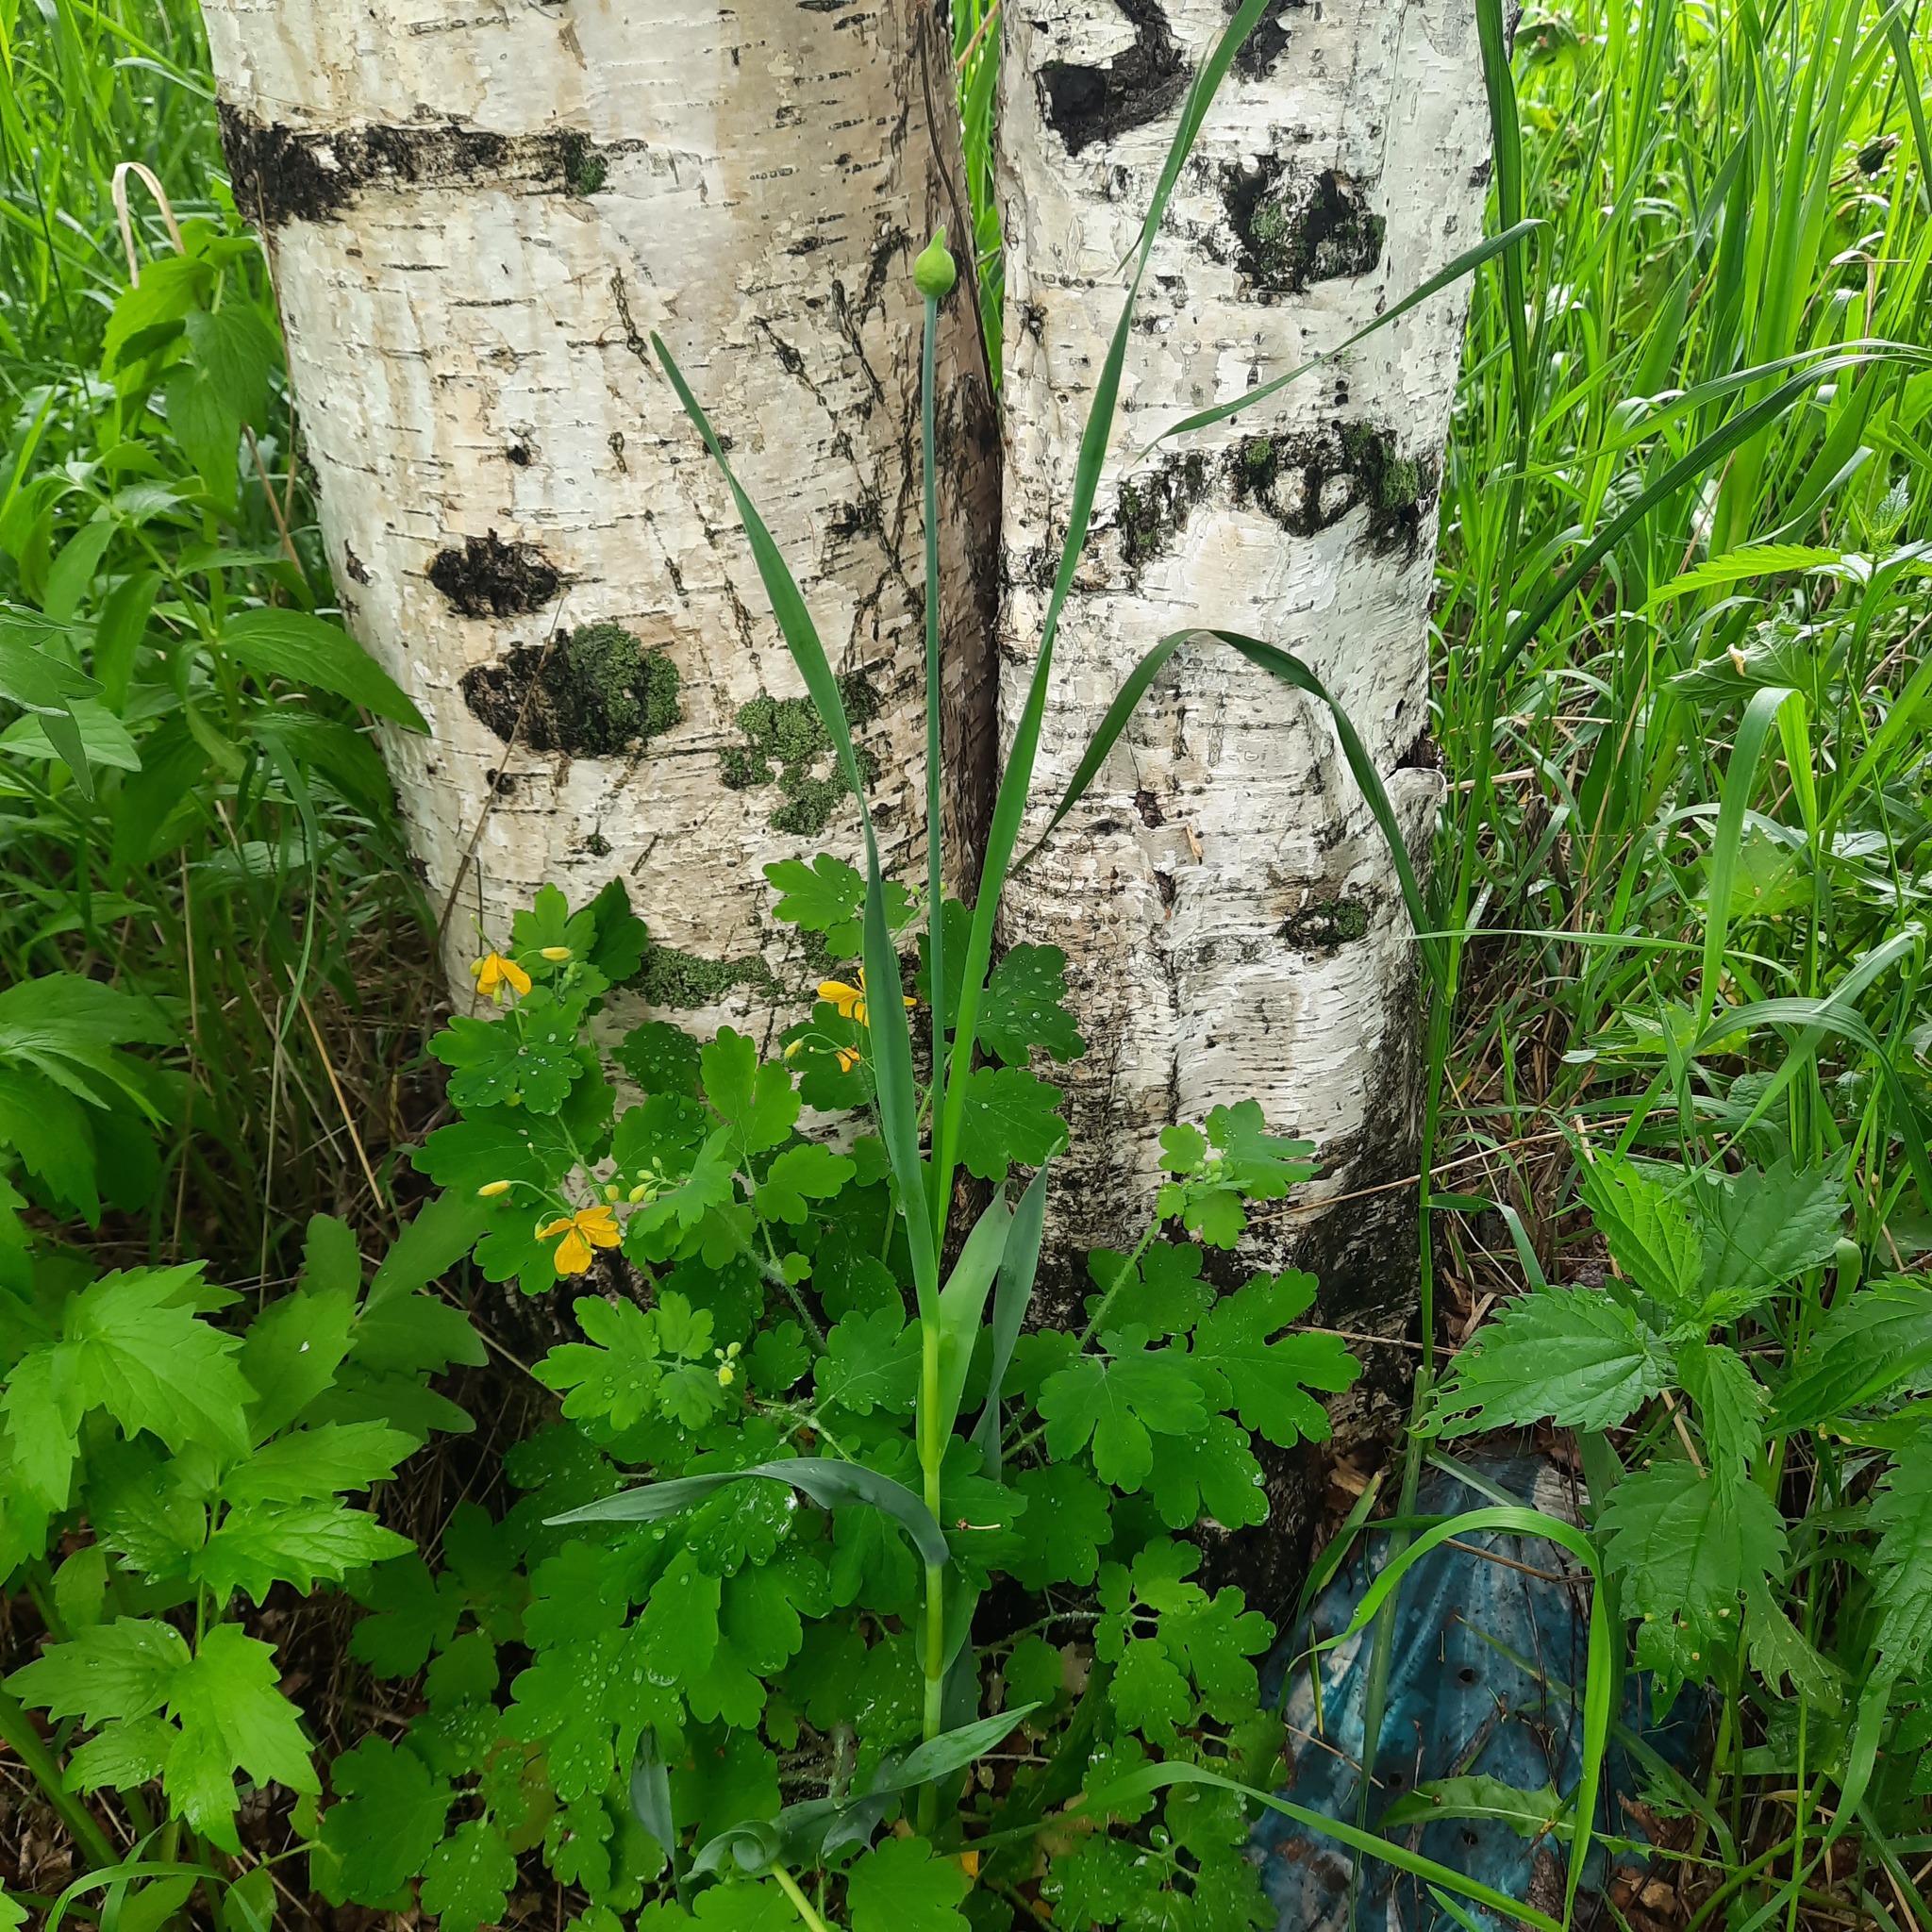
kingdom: Plantae
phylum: Tracheophyta
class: Liliopsida
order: Asparagales
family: Amaryllidaceae
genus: Allium
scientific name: Allium obliquum
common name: Oblique onion
